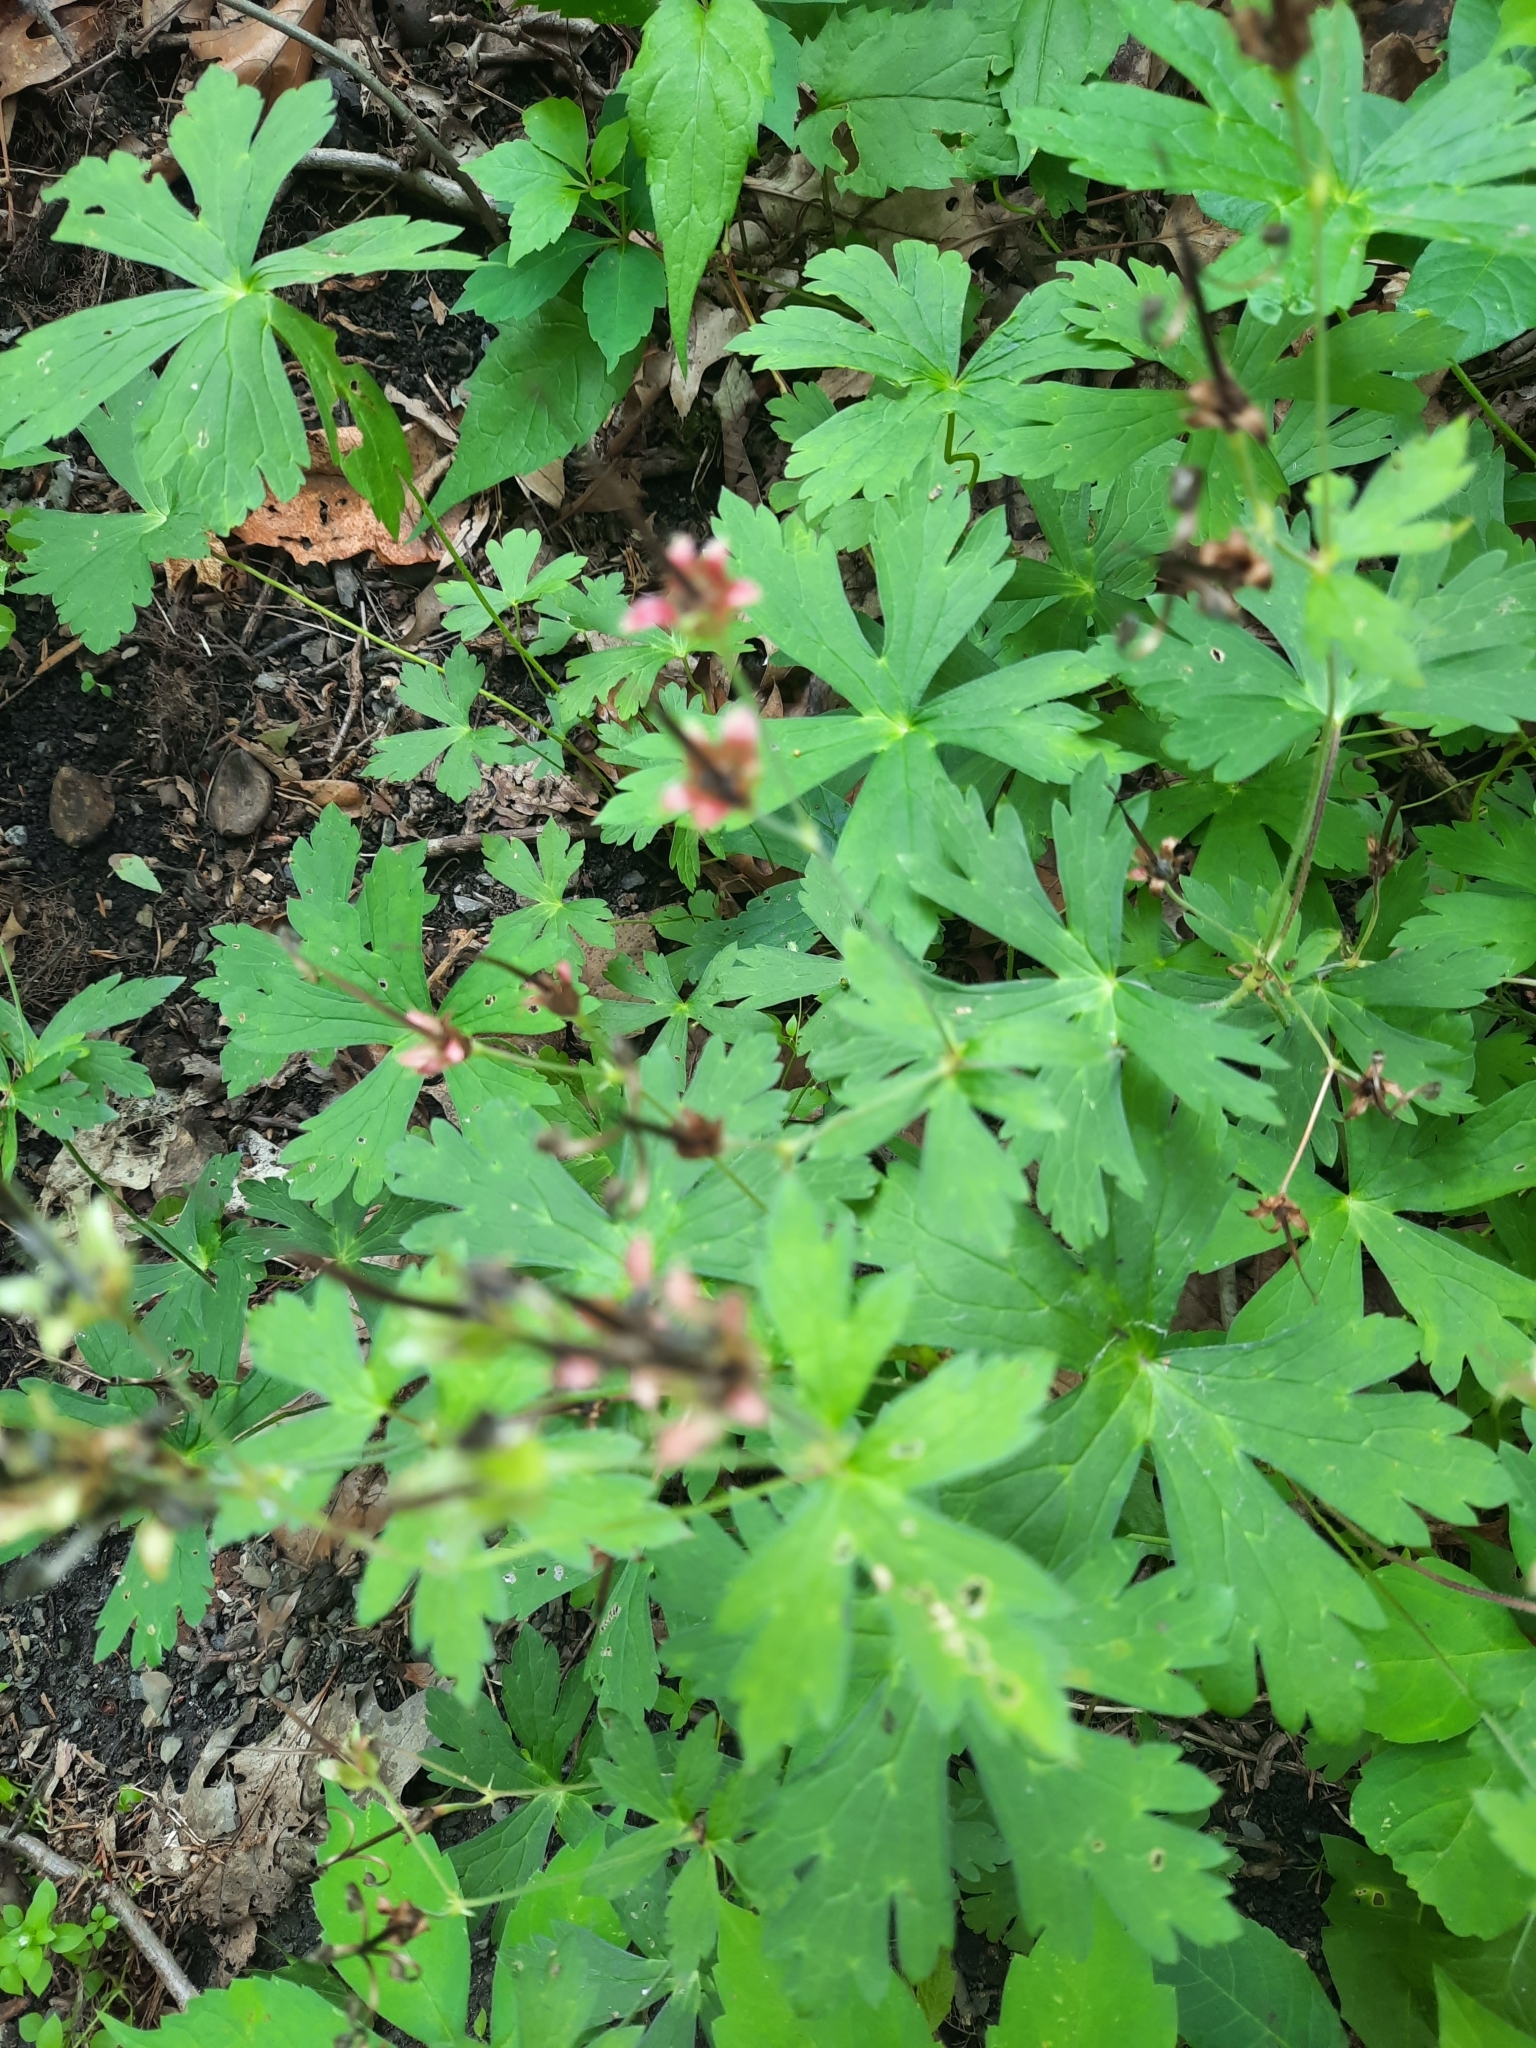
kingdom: Plantae
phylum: Tracheophyta
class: Magnoliopsida
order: Geraniales
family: Geraniaceae
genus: Geranium
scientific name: Geranium maculatum
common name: Spotted geranium
